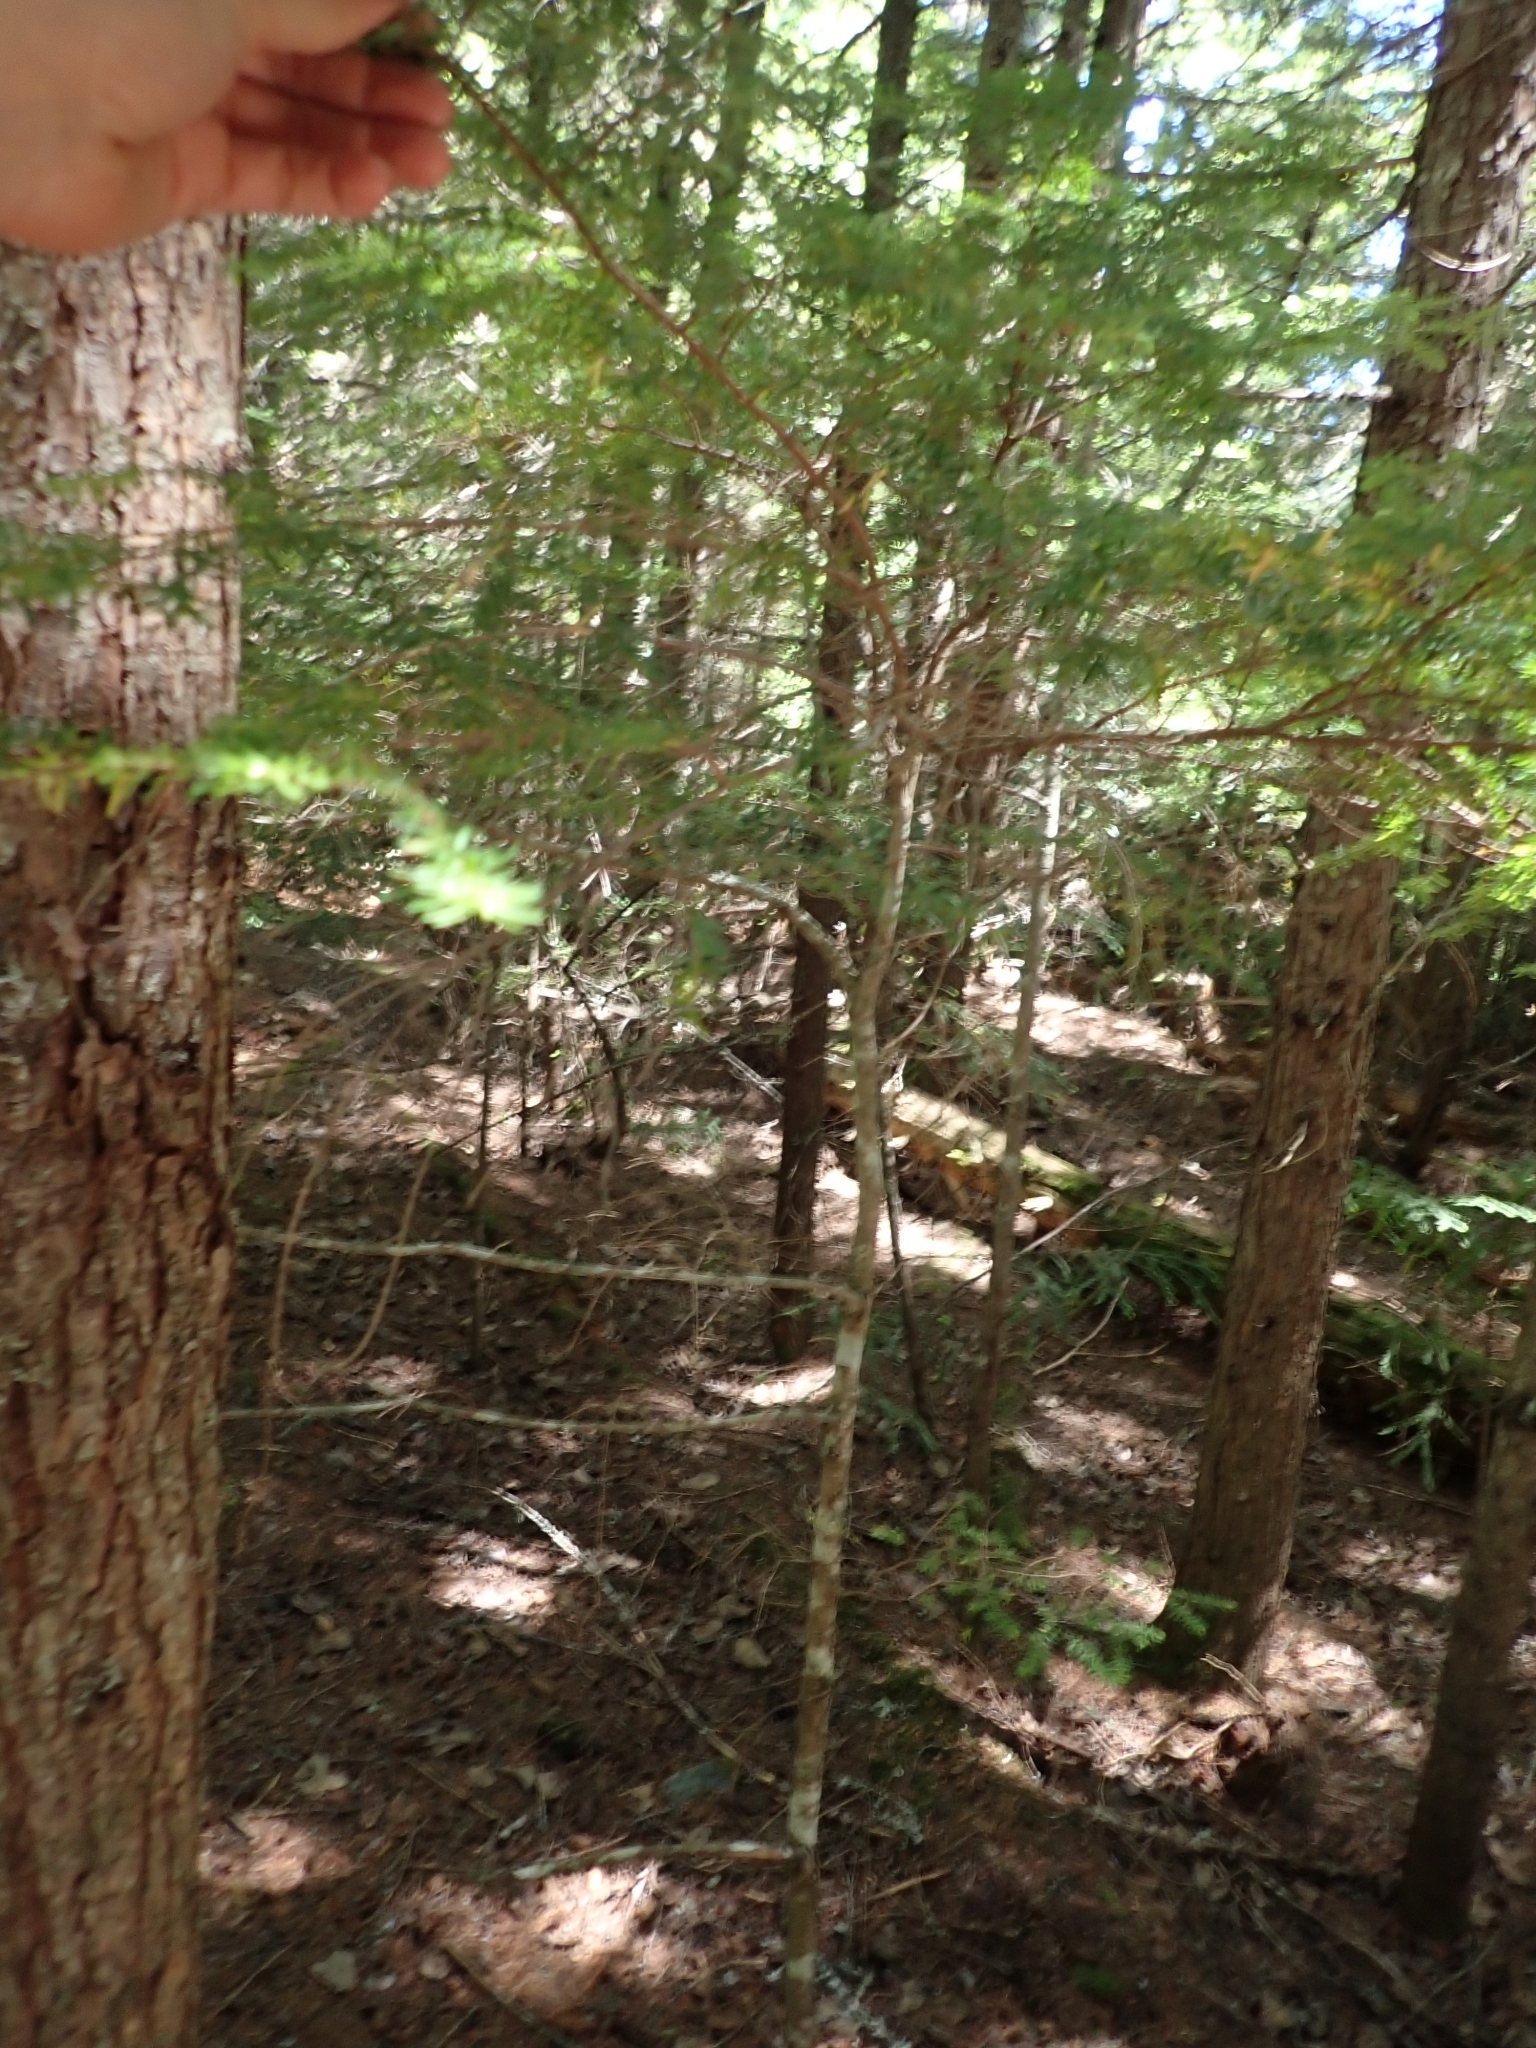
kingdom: Plantae
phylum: Tracheophyta
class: Pinopsida
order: Pinales
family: Pinaceae
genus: Tsuga
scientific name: Tsuga heterophylla
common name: Western hemlock
